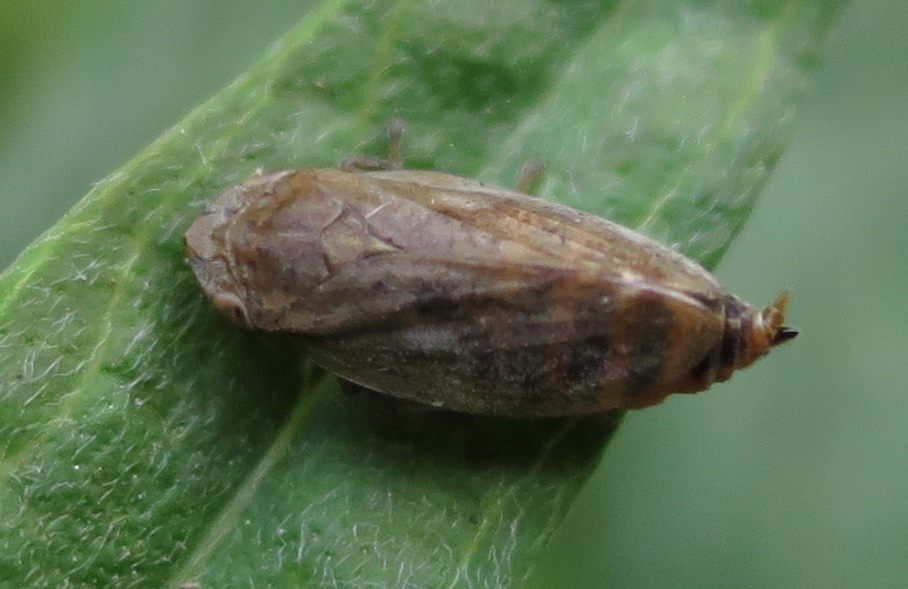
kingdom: Animalia
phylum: Arthropoda
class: Insecta
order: Hemiptera
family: Aphrophoridae
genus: Philaenus
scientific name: Philaenus spumarius
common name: Meadow spittlebug
